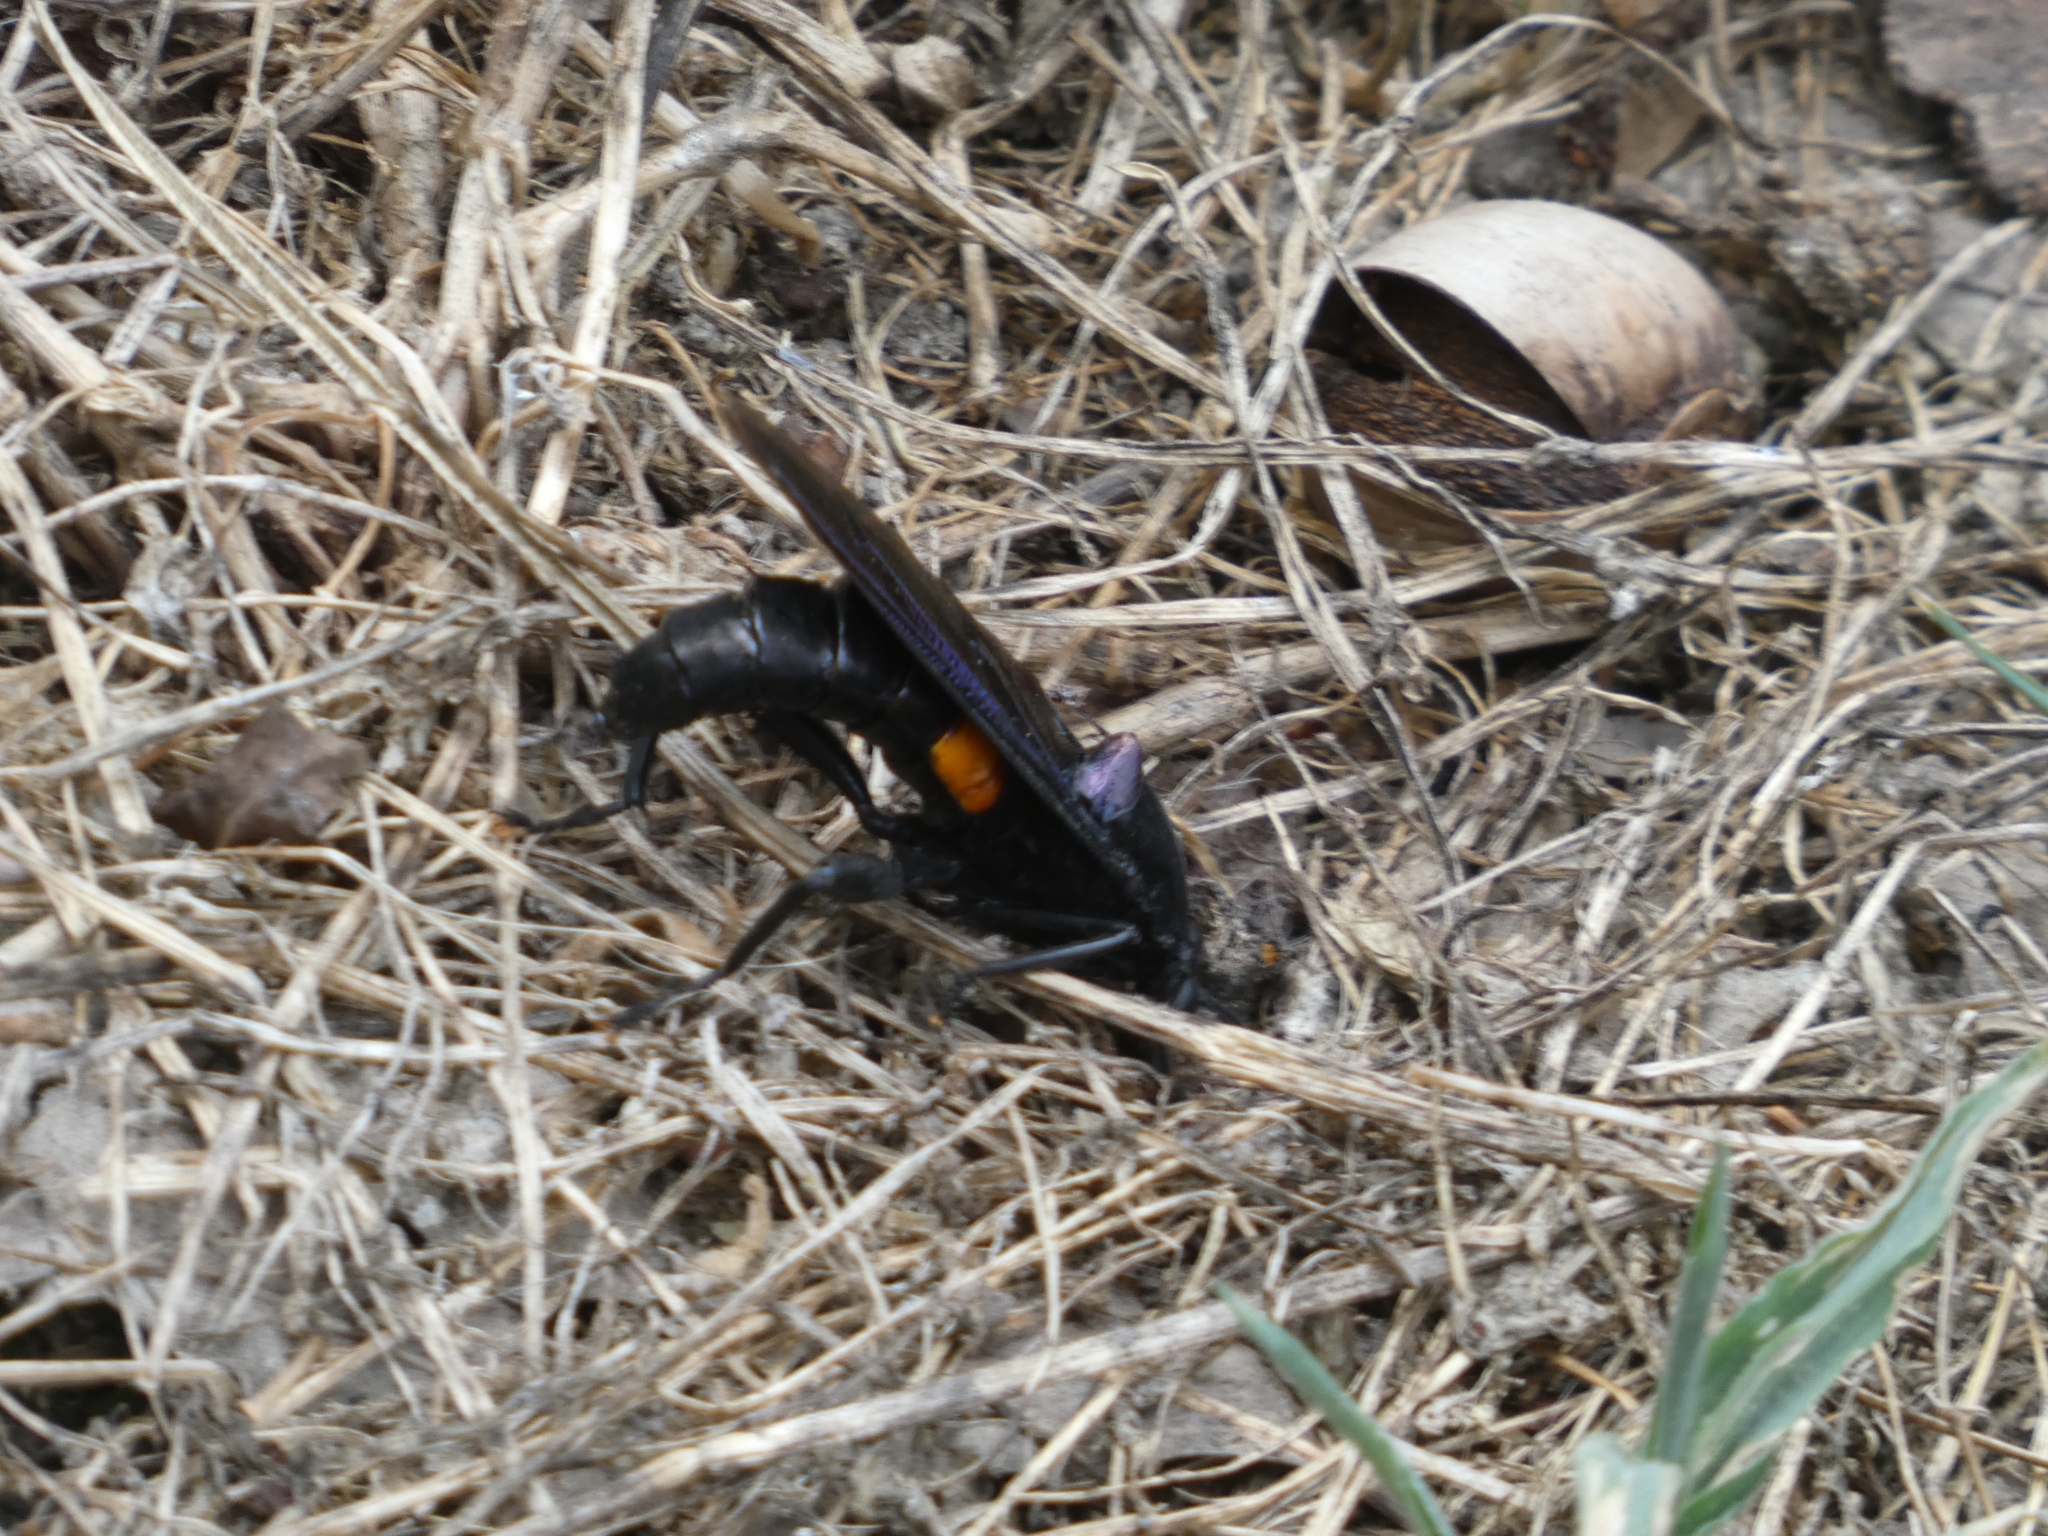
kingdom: Animalia
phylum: Arthropoda
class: Insecta
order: Diptera
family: Mydidae
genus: Mydas
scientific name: Mydas clavatus
